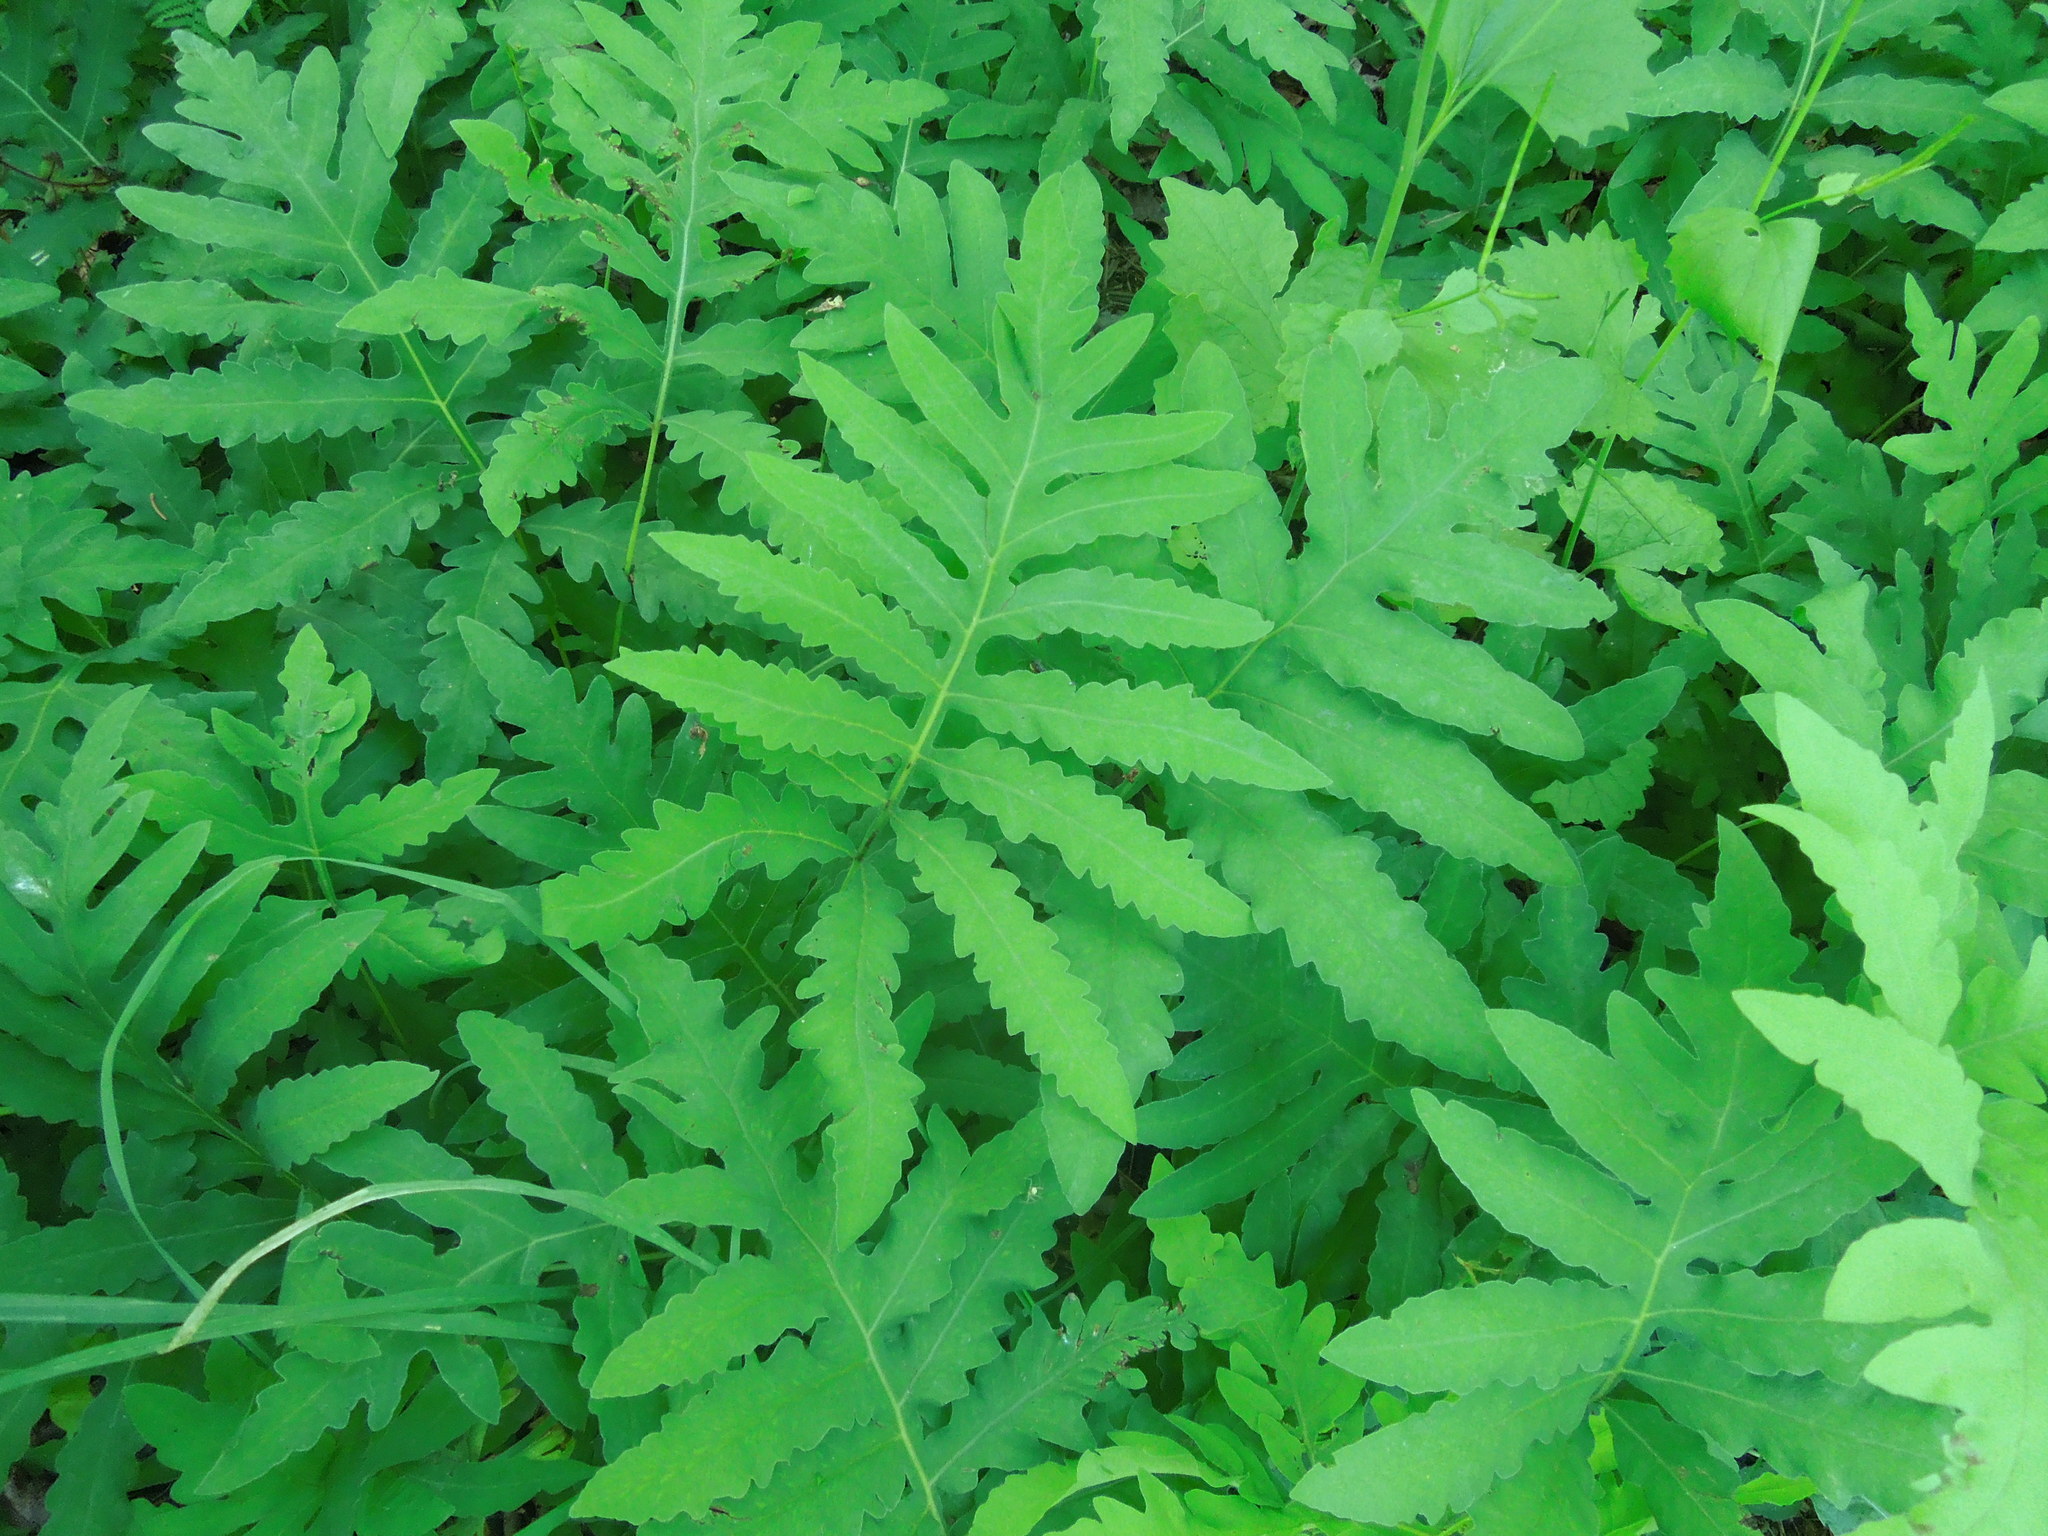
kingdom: Plantae
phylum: Tracheophyta
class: Polypodiopsida
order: Polypodiales
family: Onocleaceae
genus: Onoclea
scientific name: Onoclea sensibilis
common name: Sensitive fern
